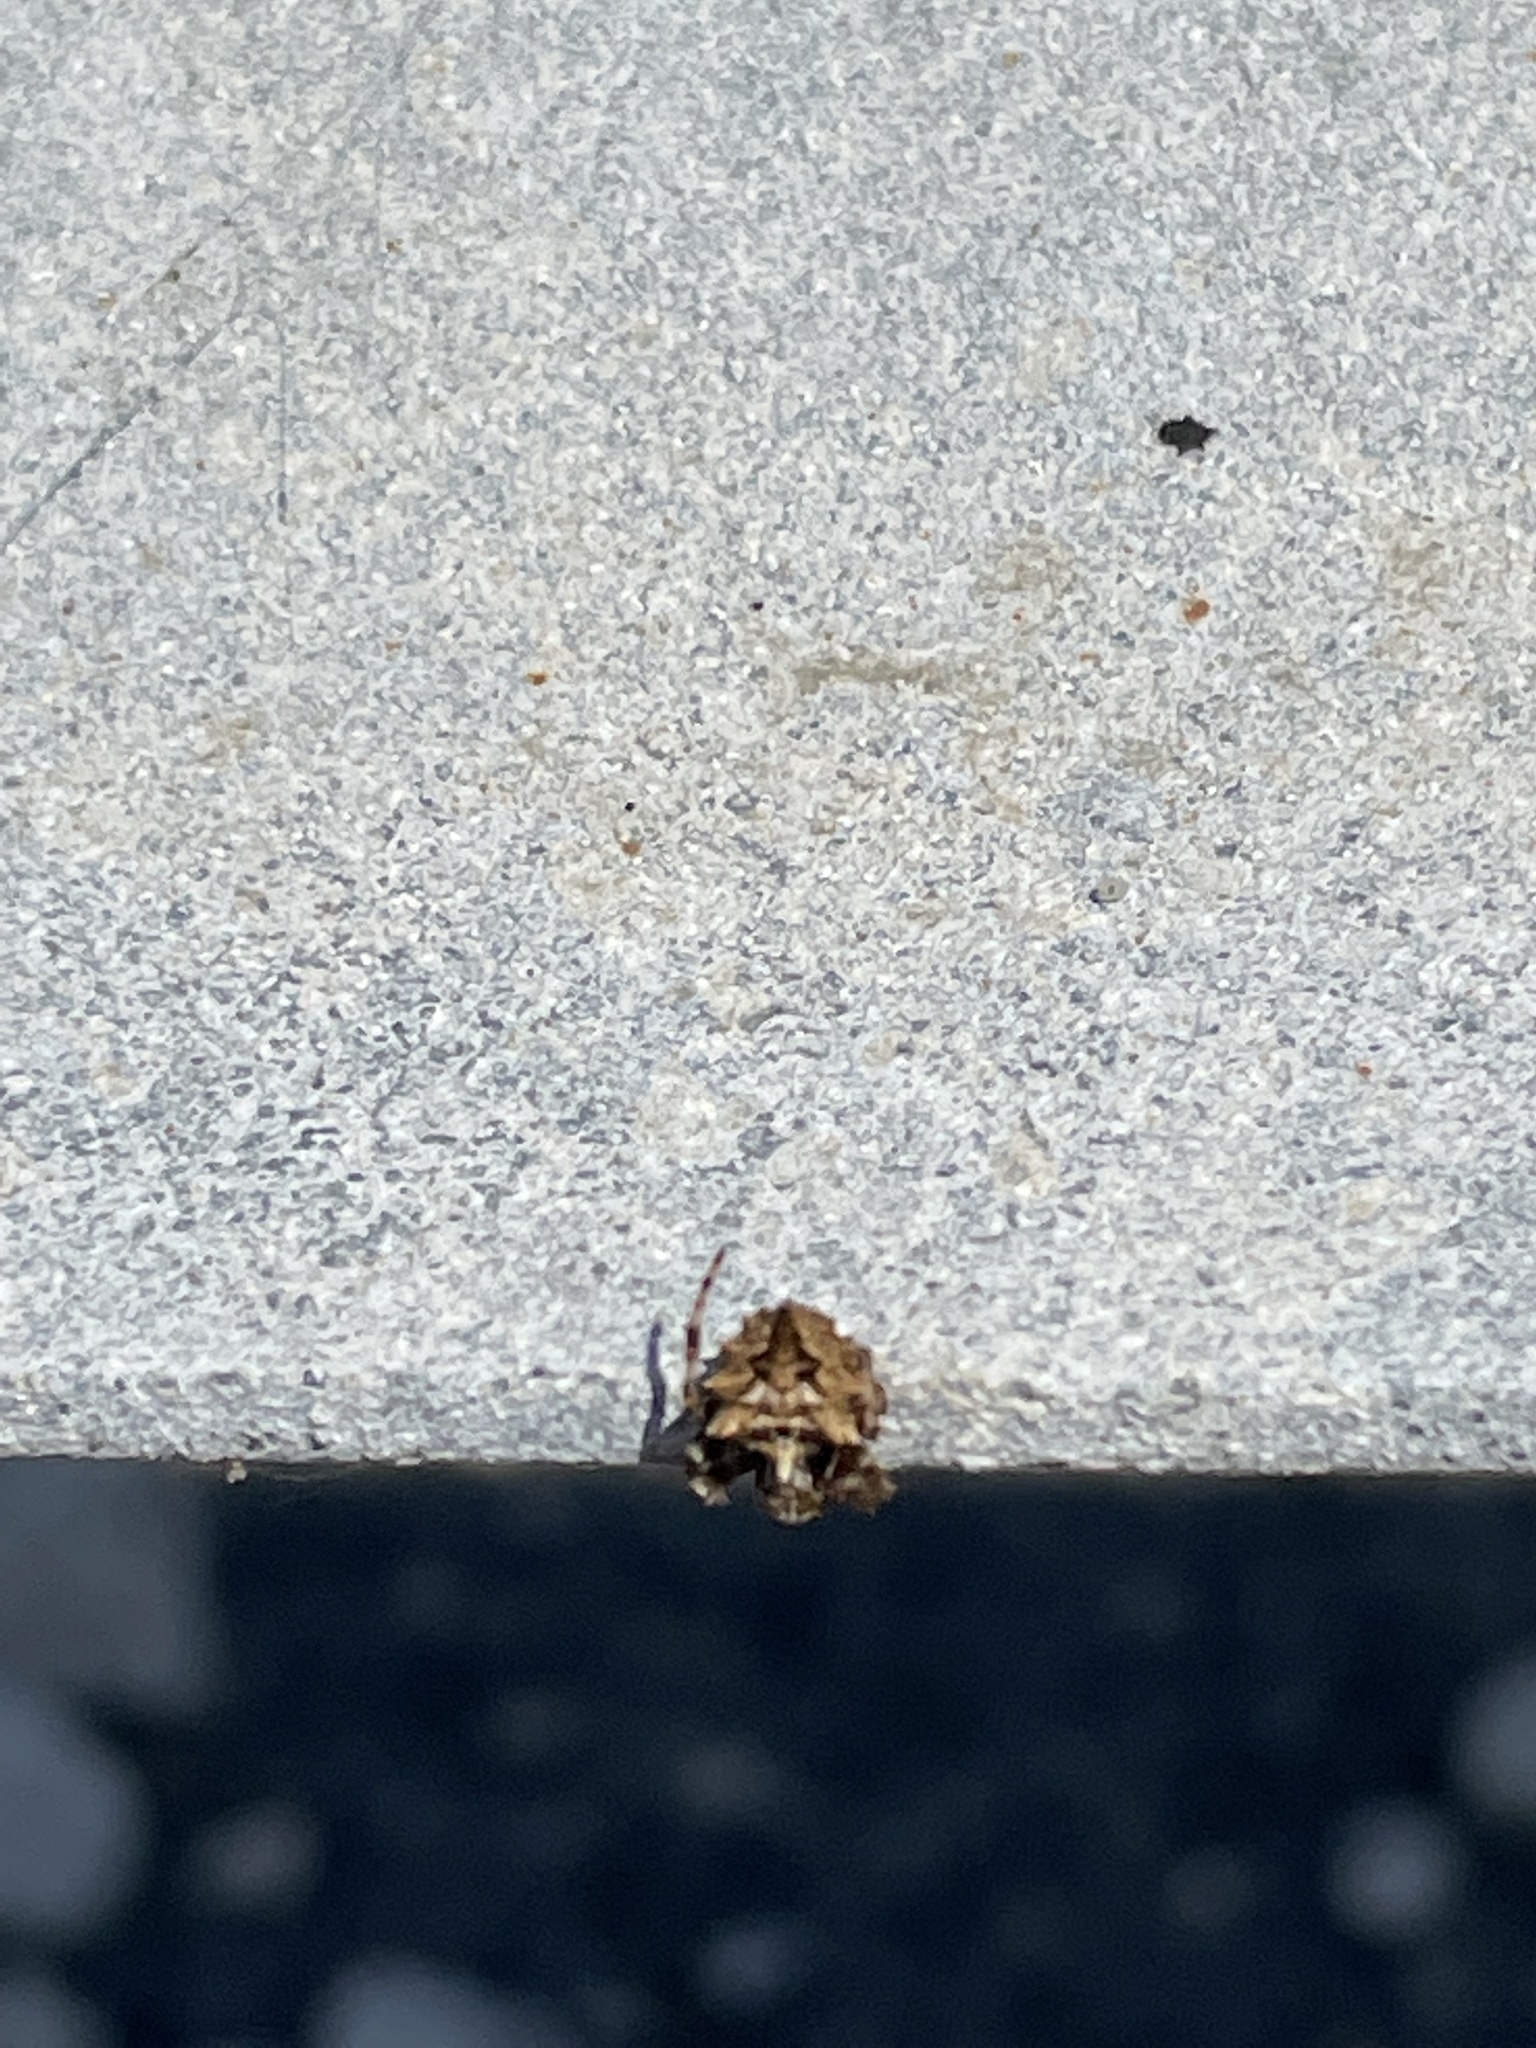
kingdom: Animalia
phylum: Arthropoda
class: Arachnida
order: Araneae
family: Araneidae
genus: Acanthepeira
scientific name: Acanthepeira
